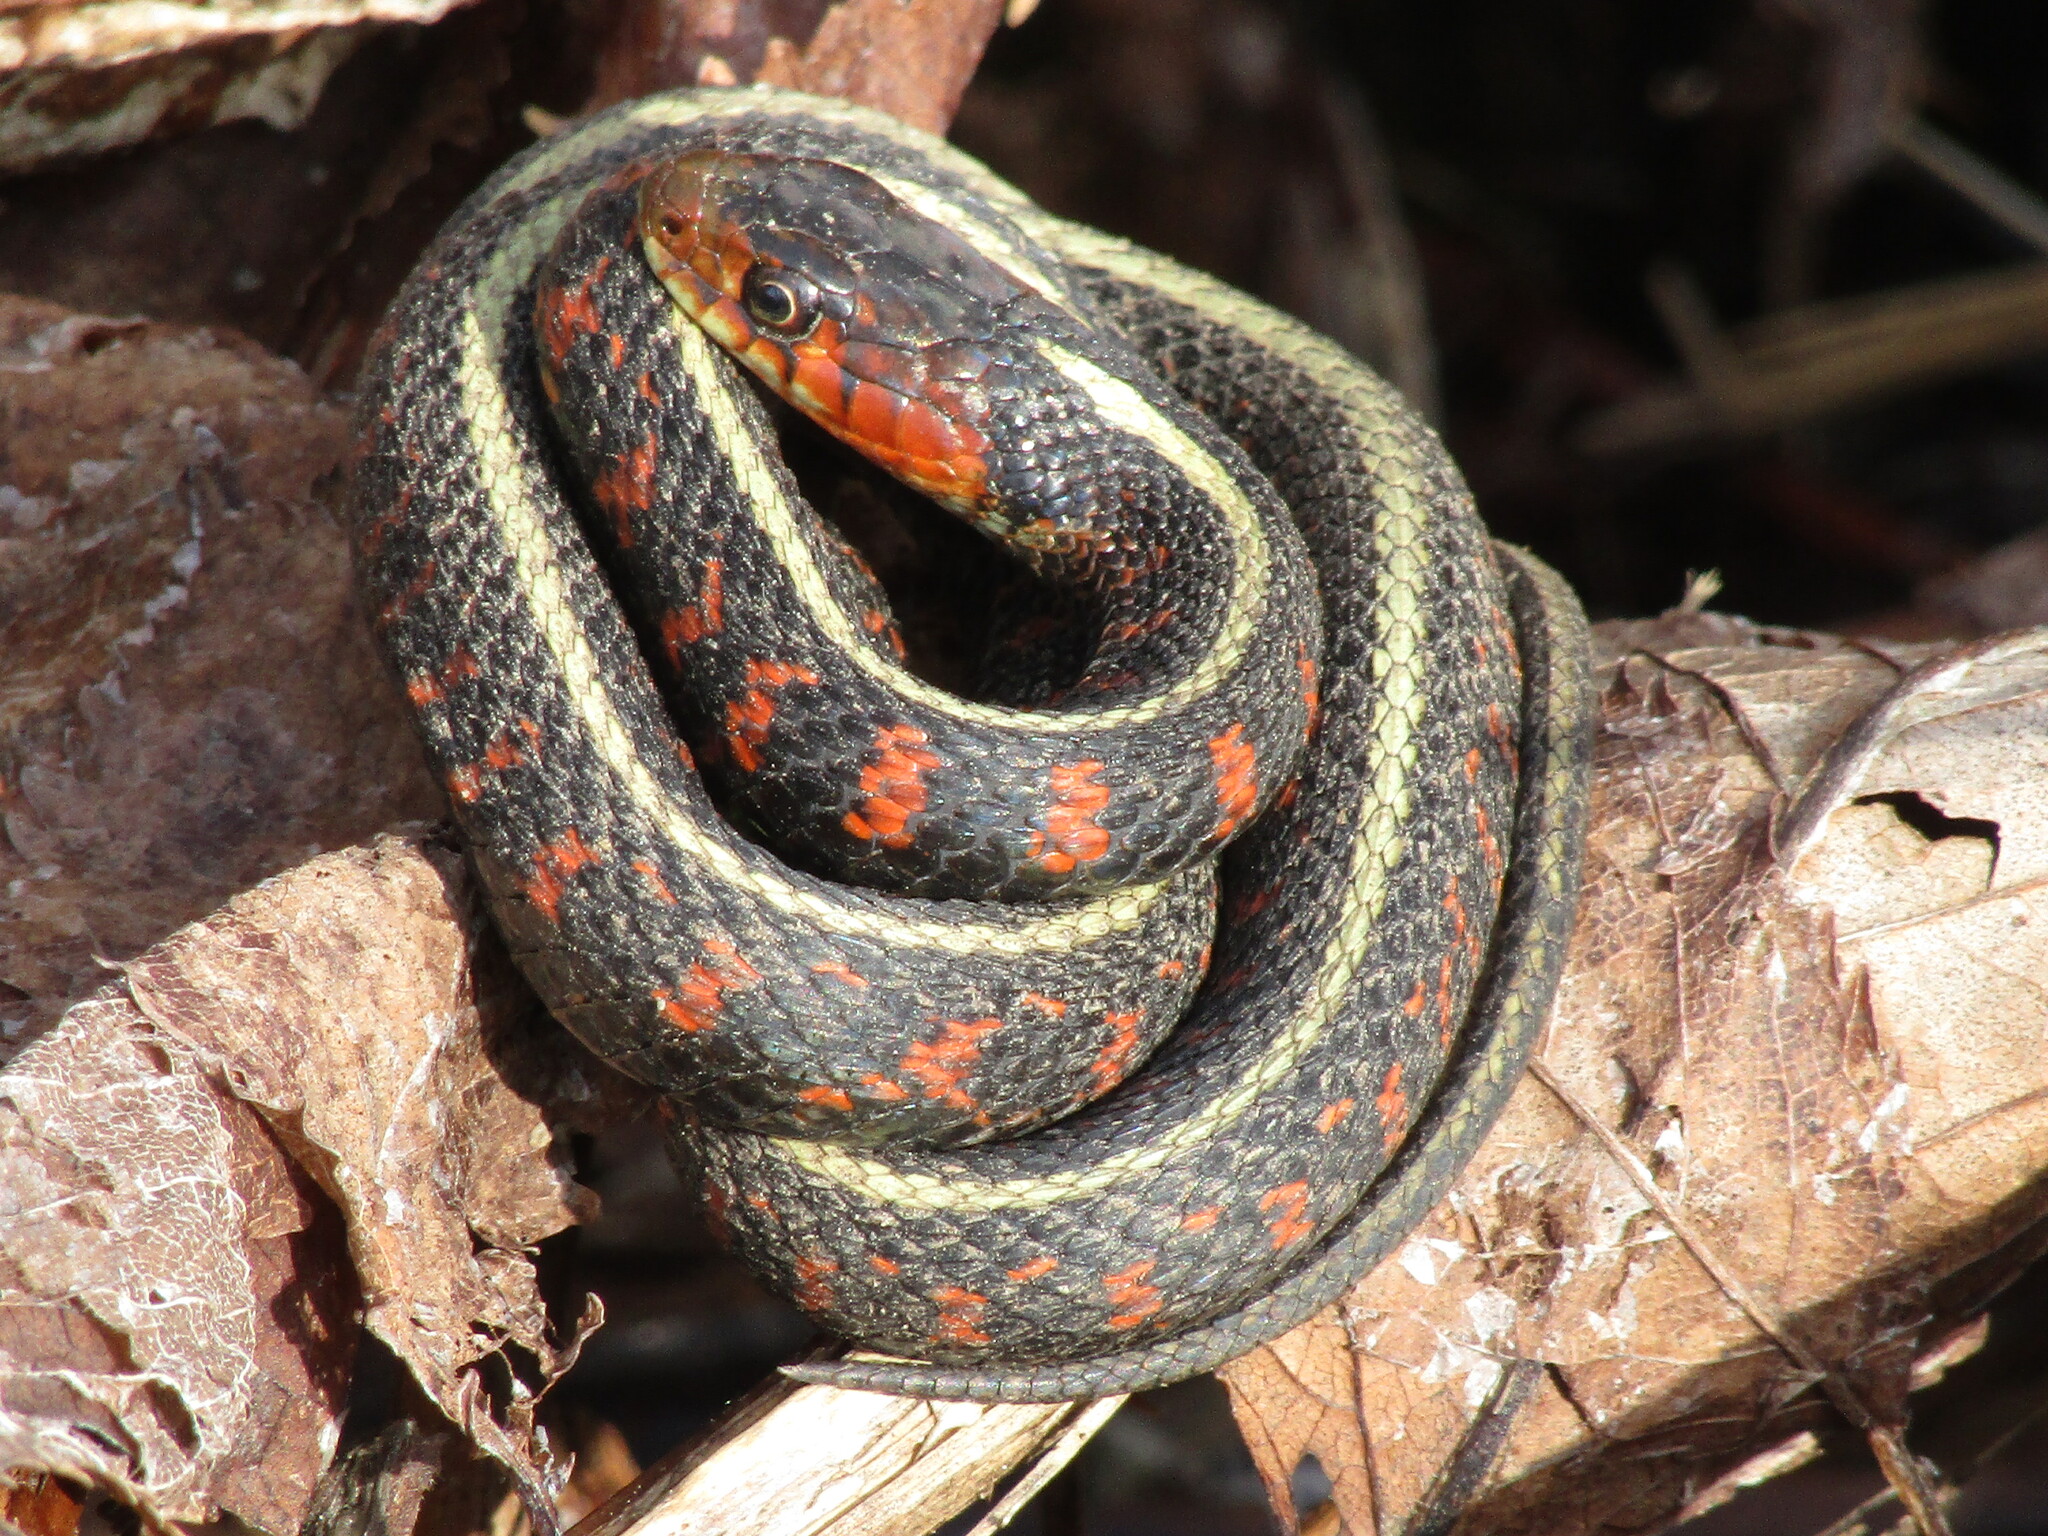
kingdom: Animalia
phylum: Chordata
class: Squamata
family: Colubridae
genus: Thamnophis
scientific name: Thamnophis sirtalis
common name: Common garter snake
